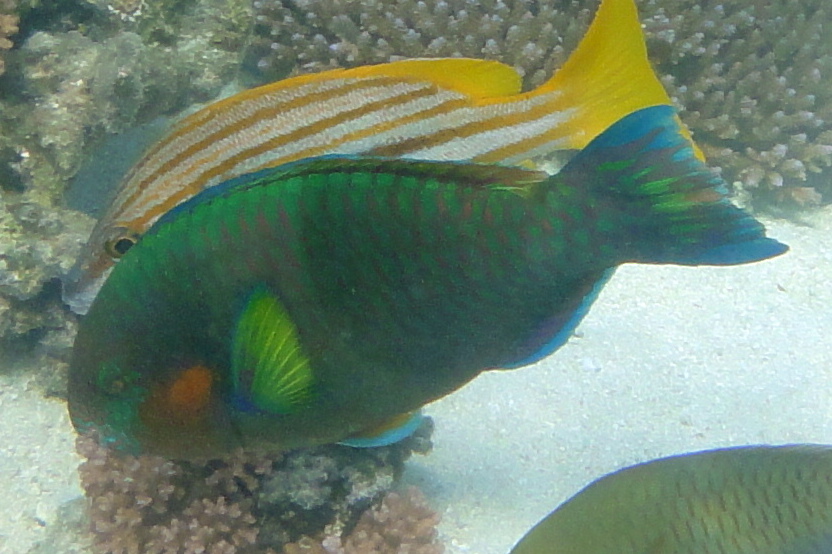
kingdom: Animalia
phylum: Chordata
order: Perciformes
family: Scaridae
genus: Scarus
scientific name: Scarus rivulatus
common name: Surf parrotfish
